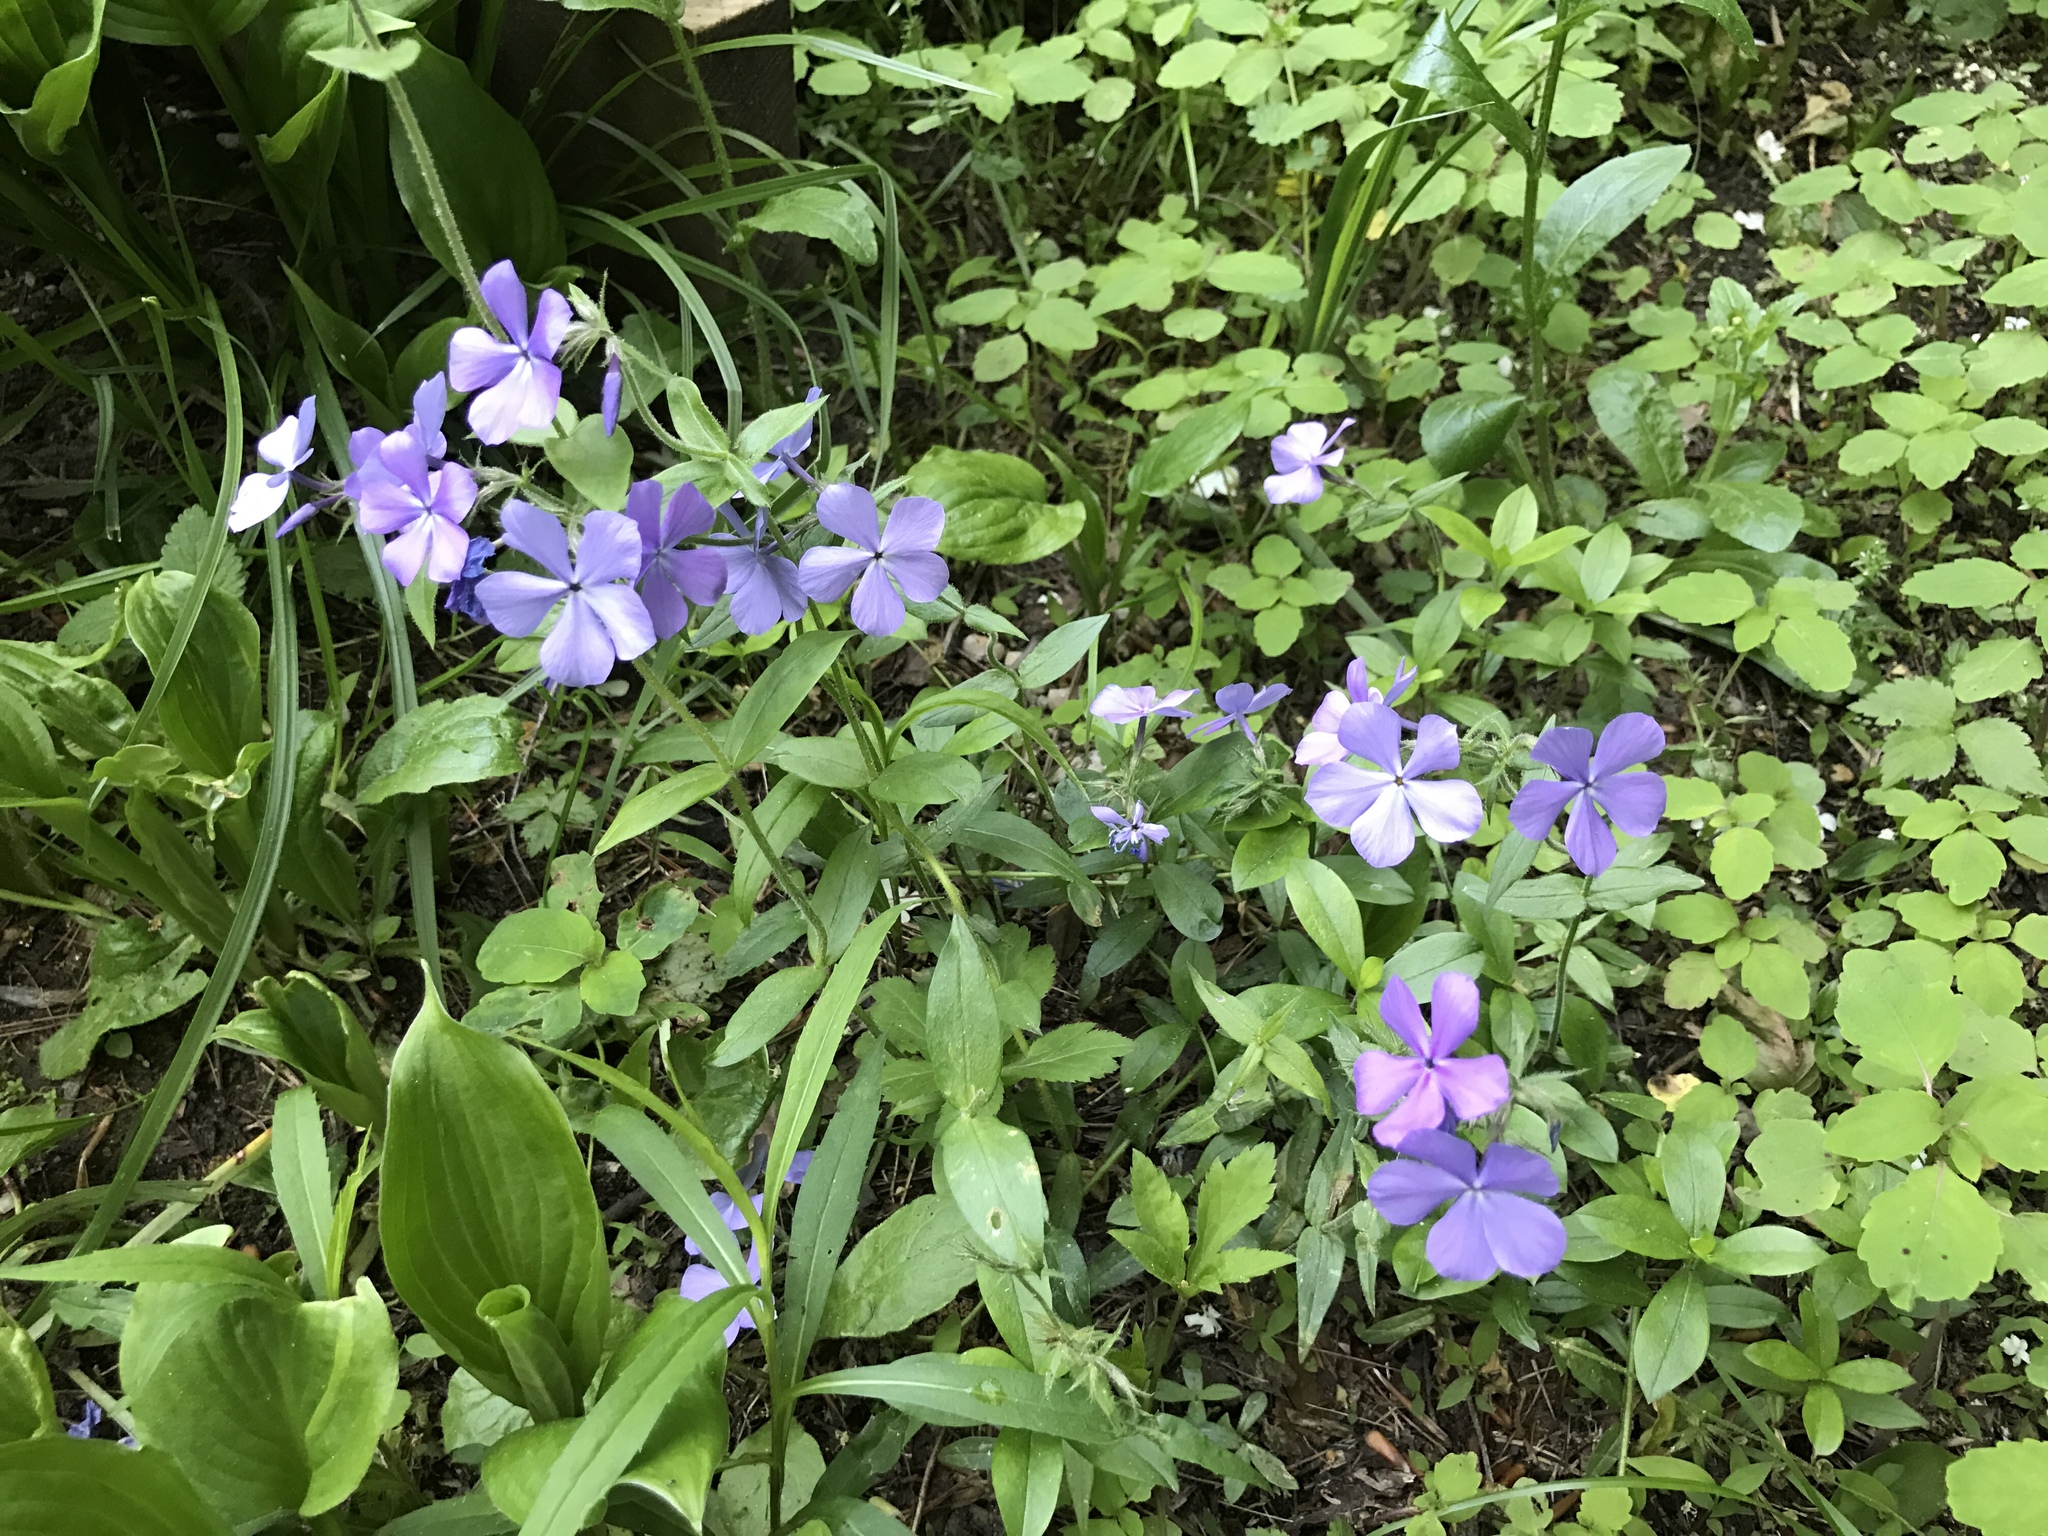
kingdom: Plantae
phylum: Tracheophyta
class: Magnoliopsida
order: Ericales
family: Polemoniaceae
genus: Phlox
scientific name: Phlox divaricata
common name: Blue phlox
